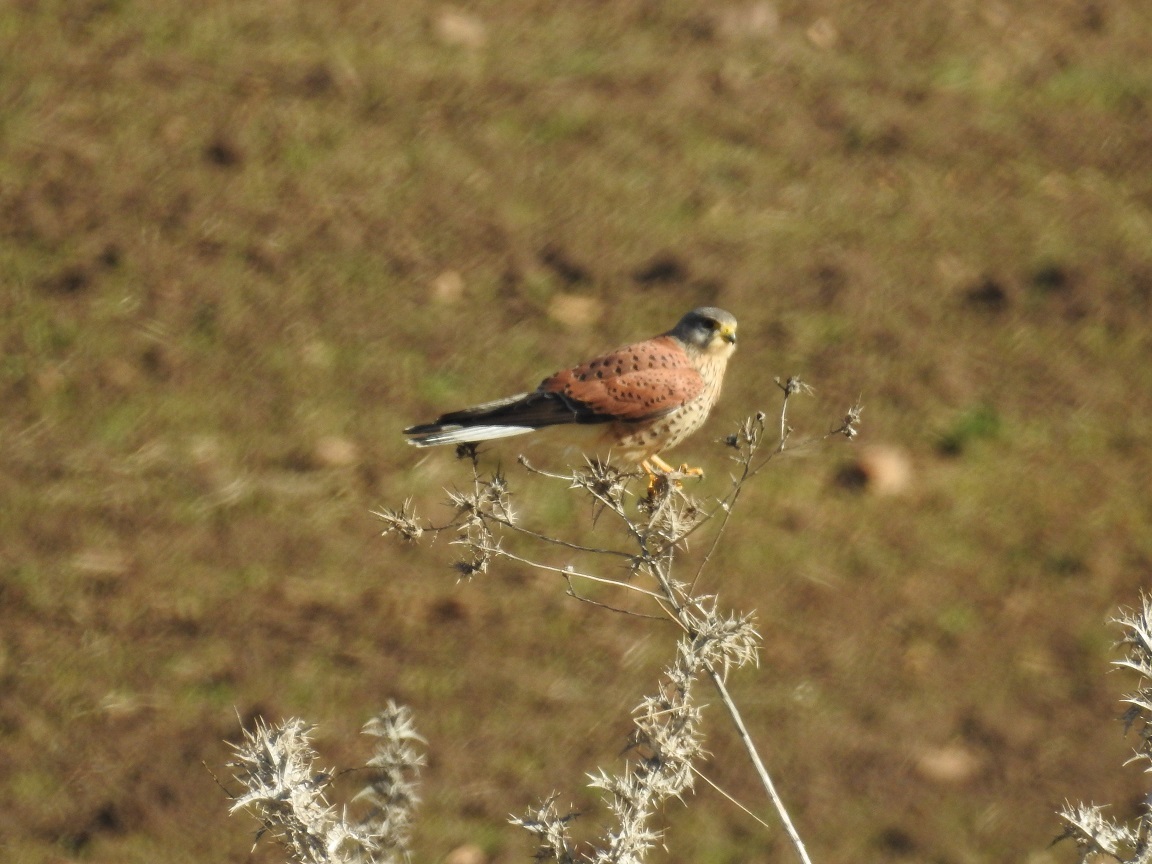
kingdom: Animalia
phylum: Chordata
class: Aves
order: Falconiformes
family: Falconidae
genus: Falco
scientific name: Falco tinnunculus
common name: Common kestrel
